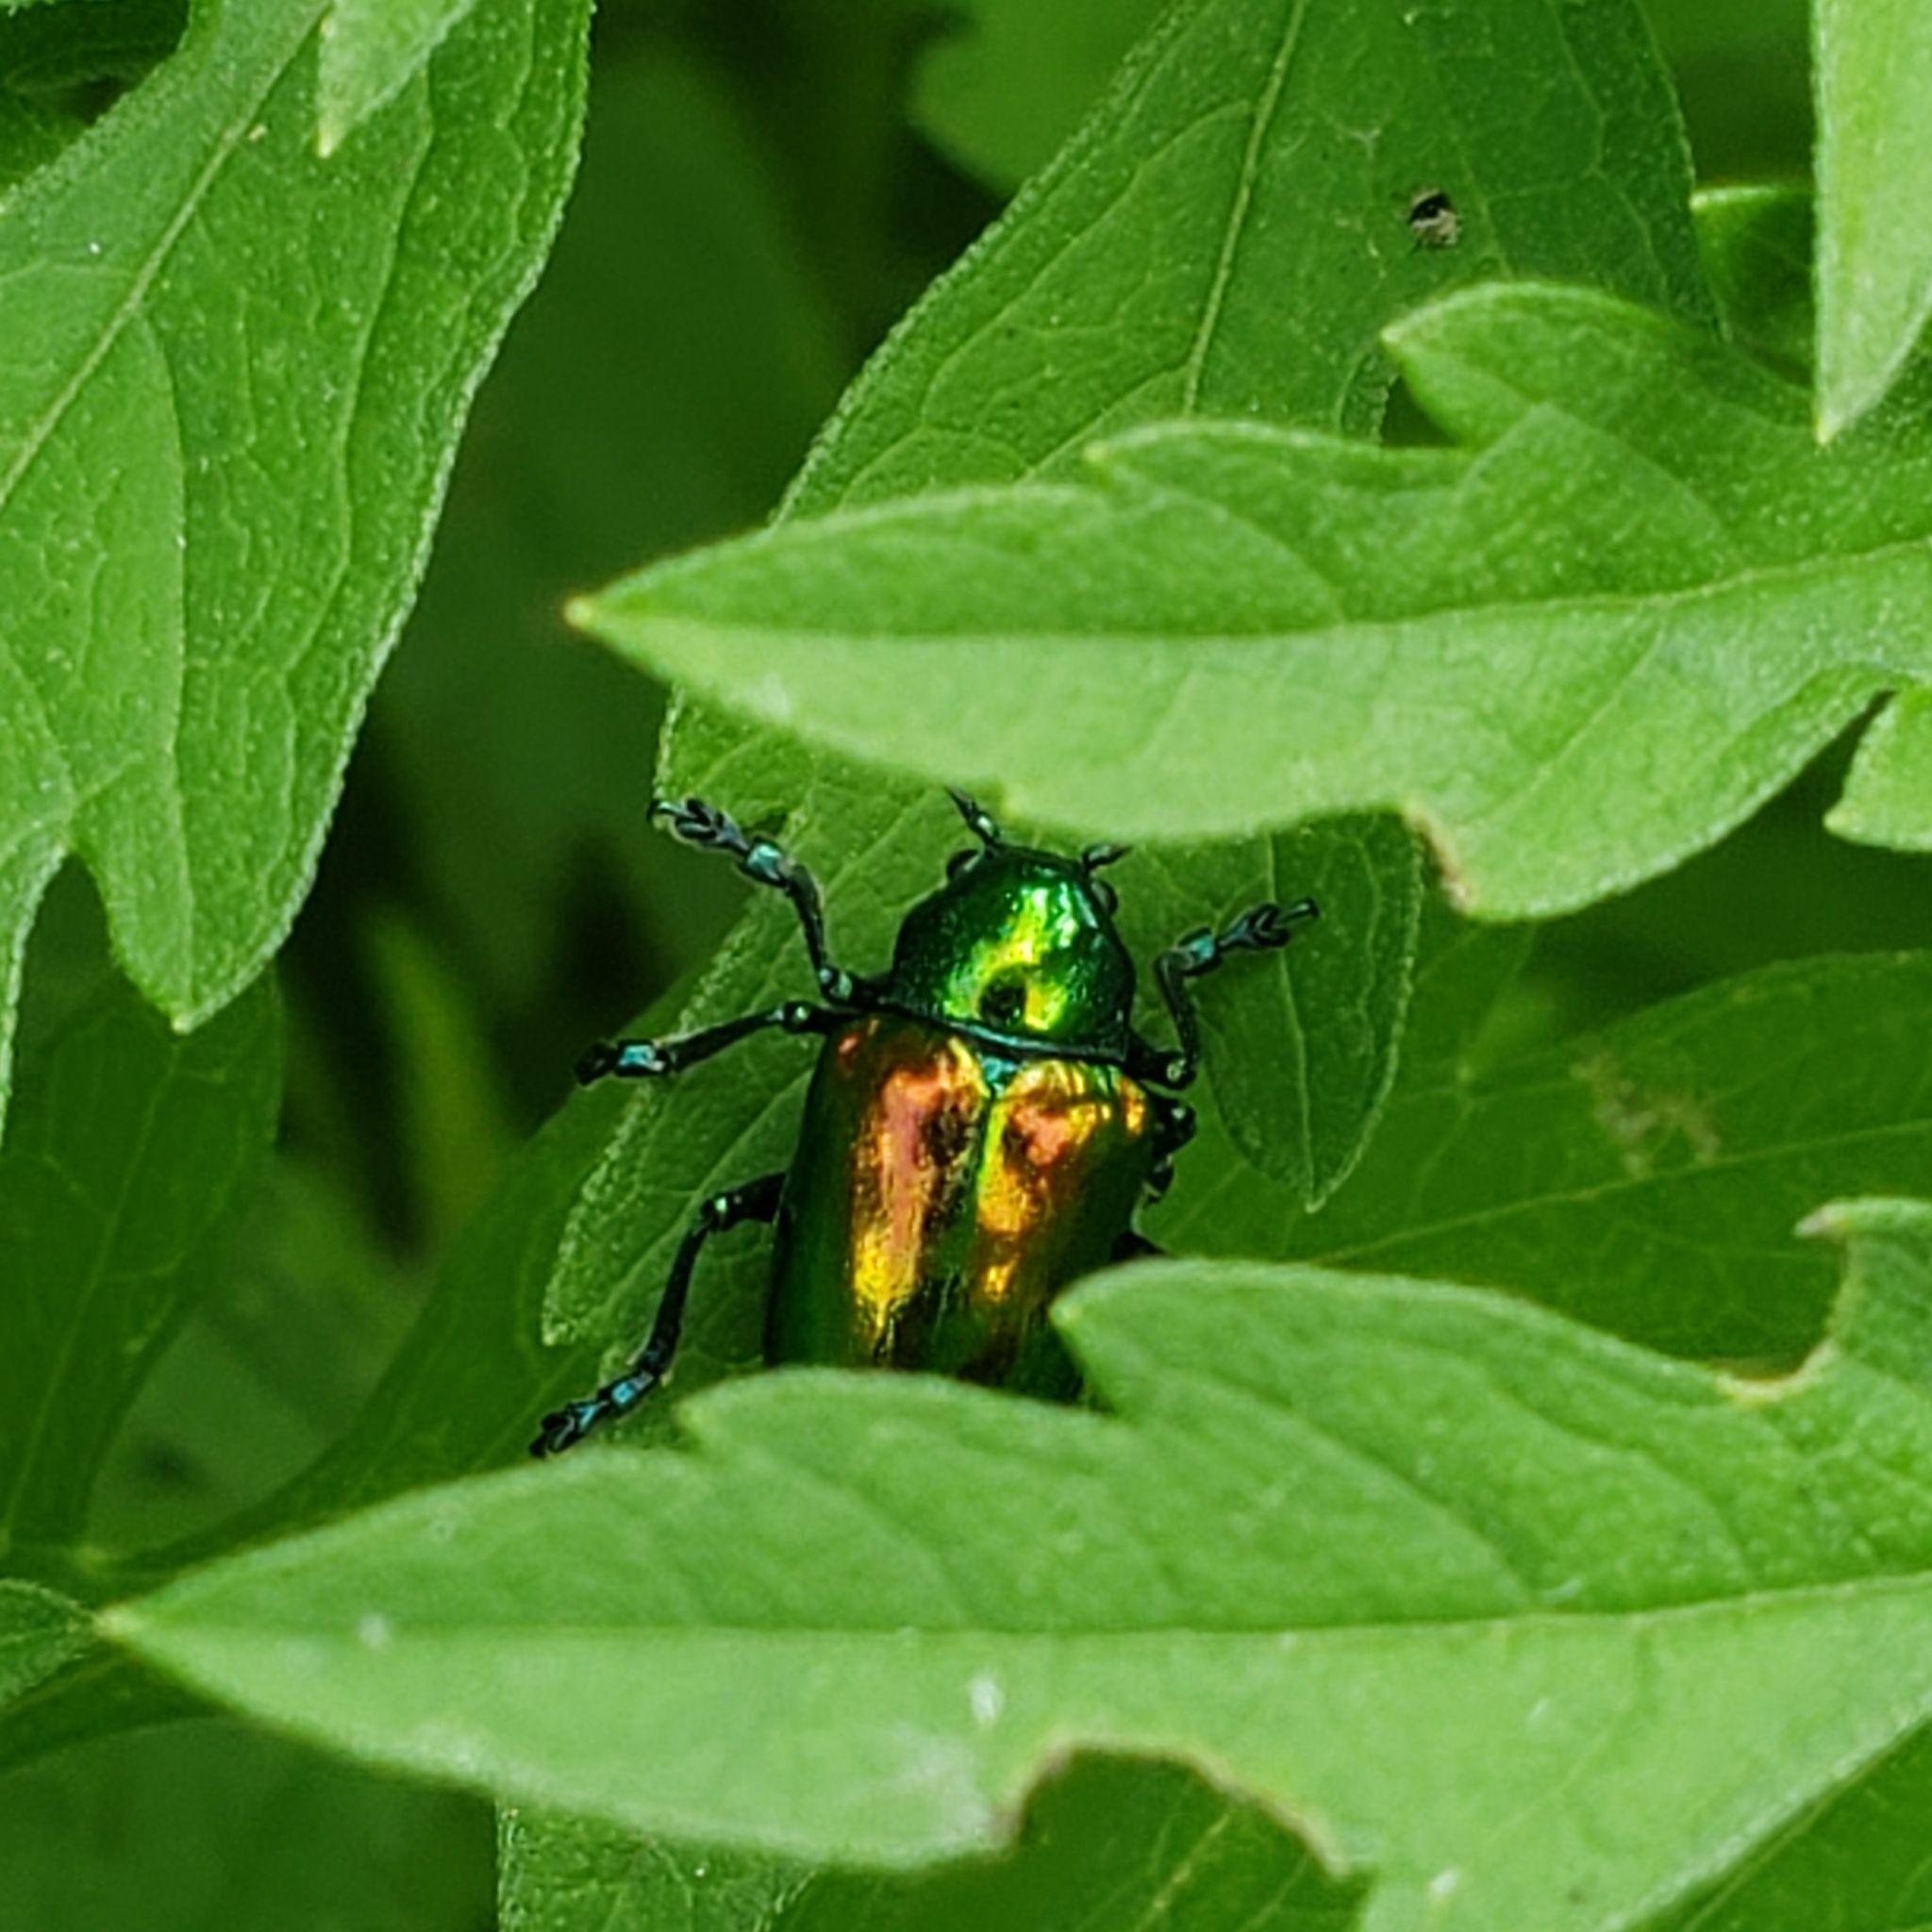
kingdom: Animalia
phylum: Arthropoda
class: Insecta
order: Coleoptera
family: Chrysomelidae
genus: Chrysochus
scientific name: Chrysochus auratus
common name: Dogbane leaf beetle
